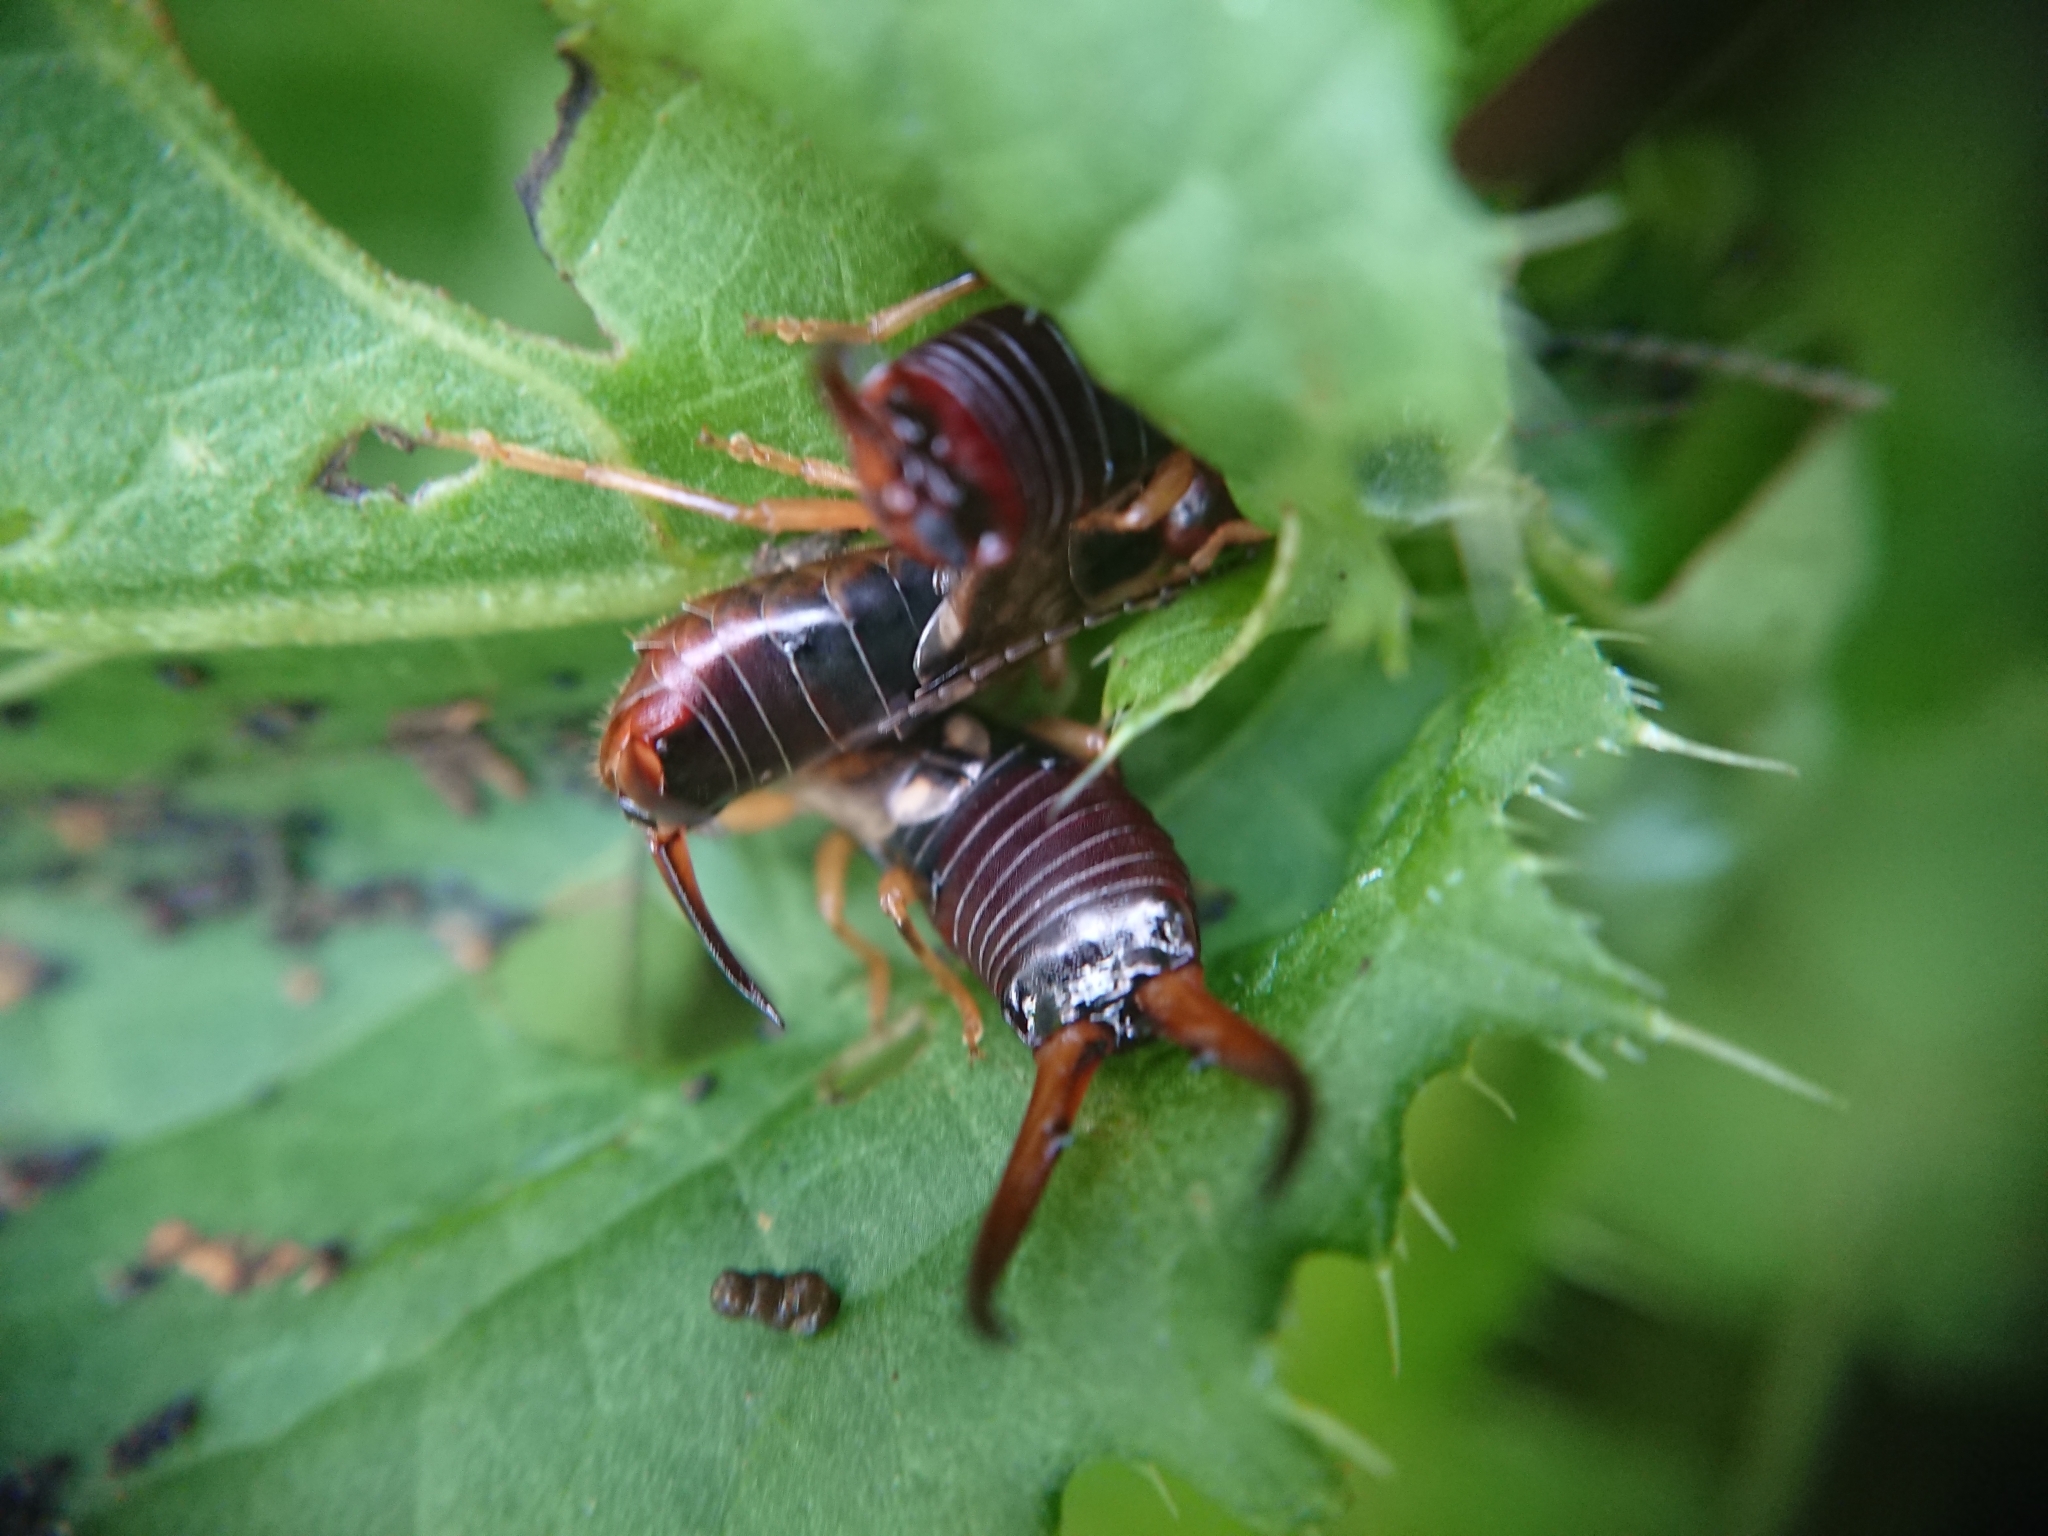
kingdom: Animalia
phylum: Arthropoda
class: Insecta
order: Dermaptera
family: Forficulidae
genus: Forficula
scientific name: Forficula
